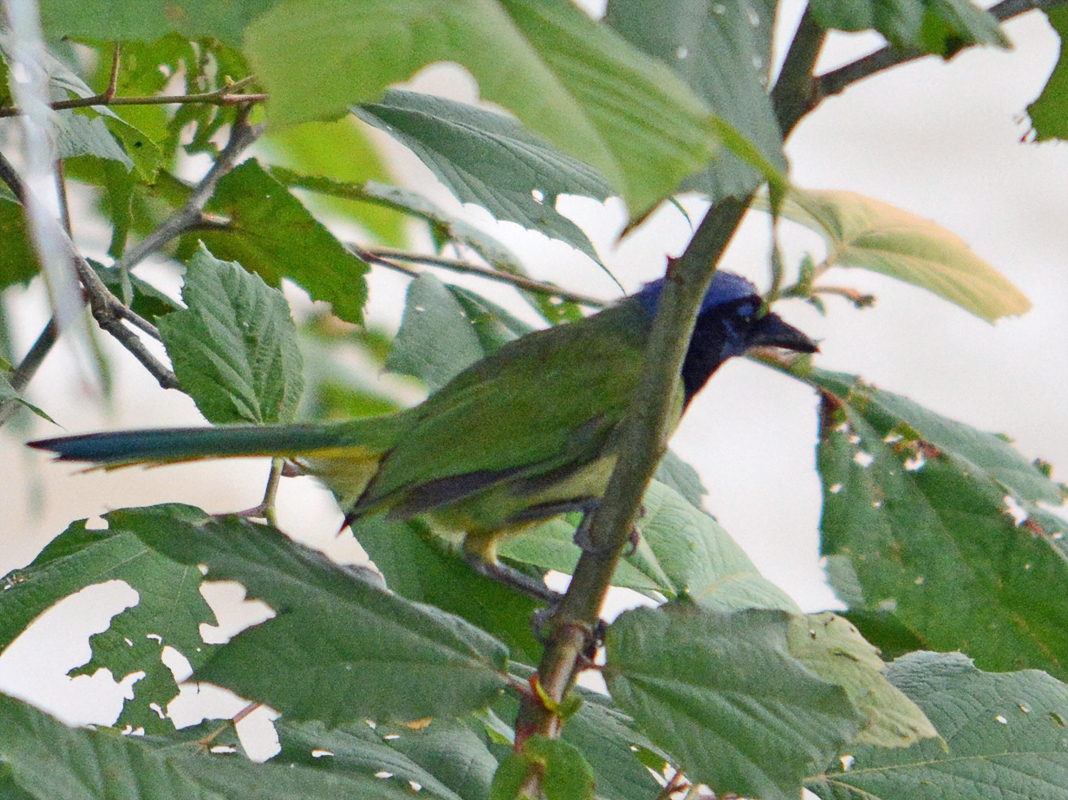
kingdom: Animalia
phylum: Chordata
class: Aves
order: Passeriformes
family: Corvidae
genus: Cyanocorax
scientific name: Cyanocorax yncas
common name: Green jay
